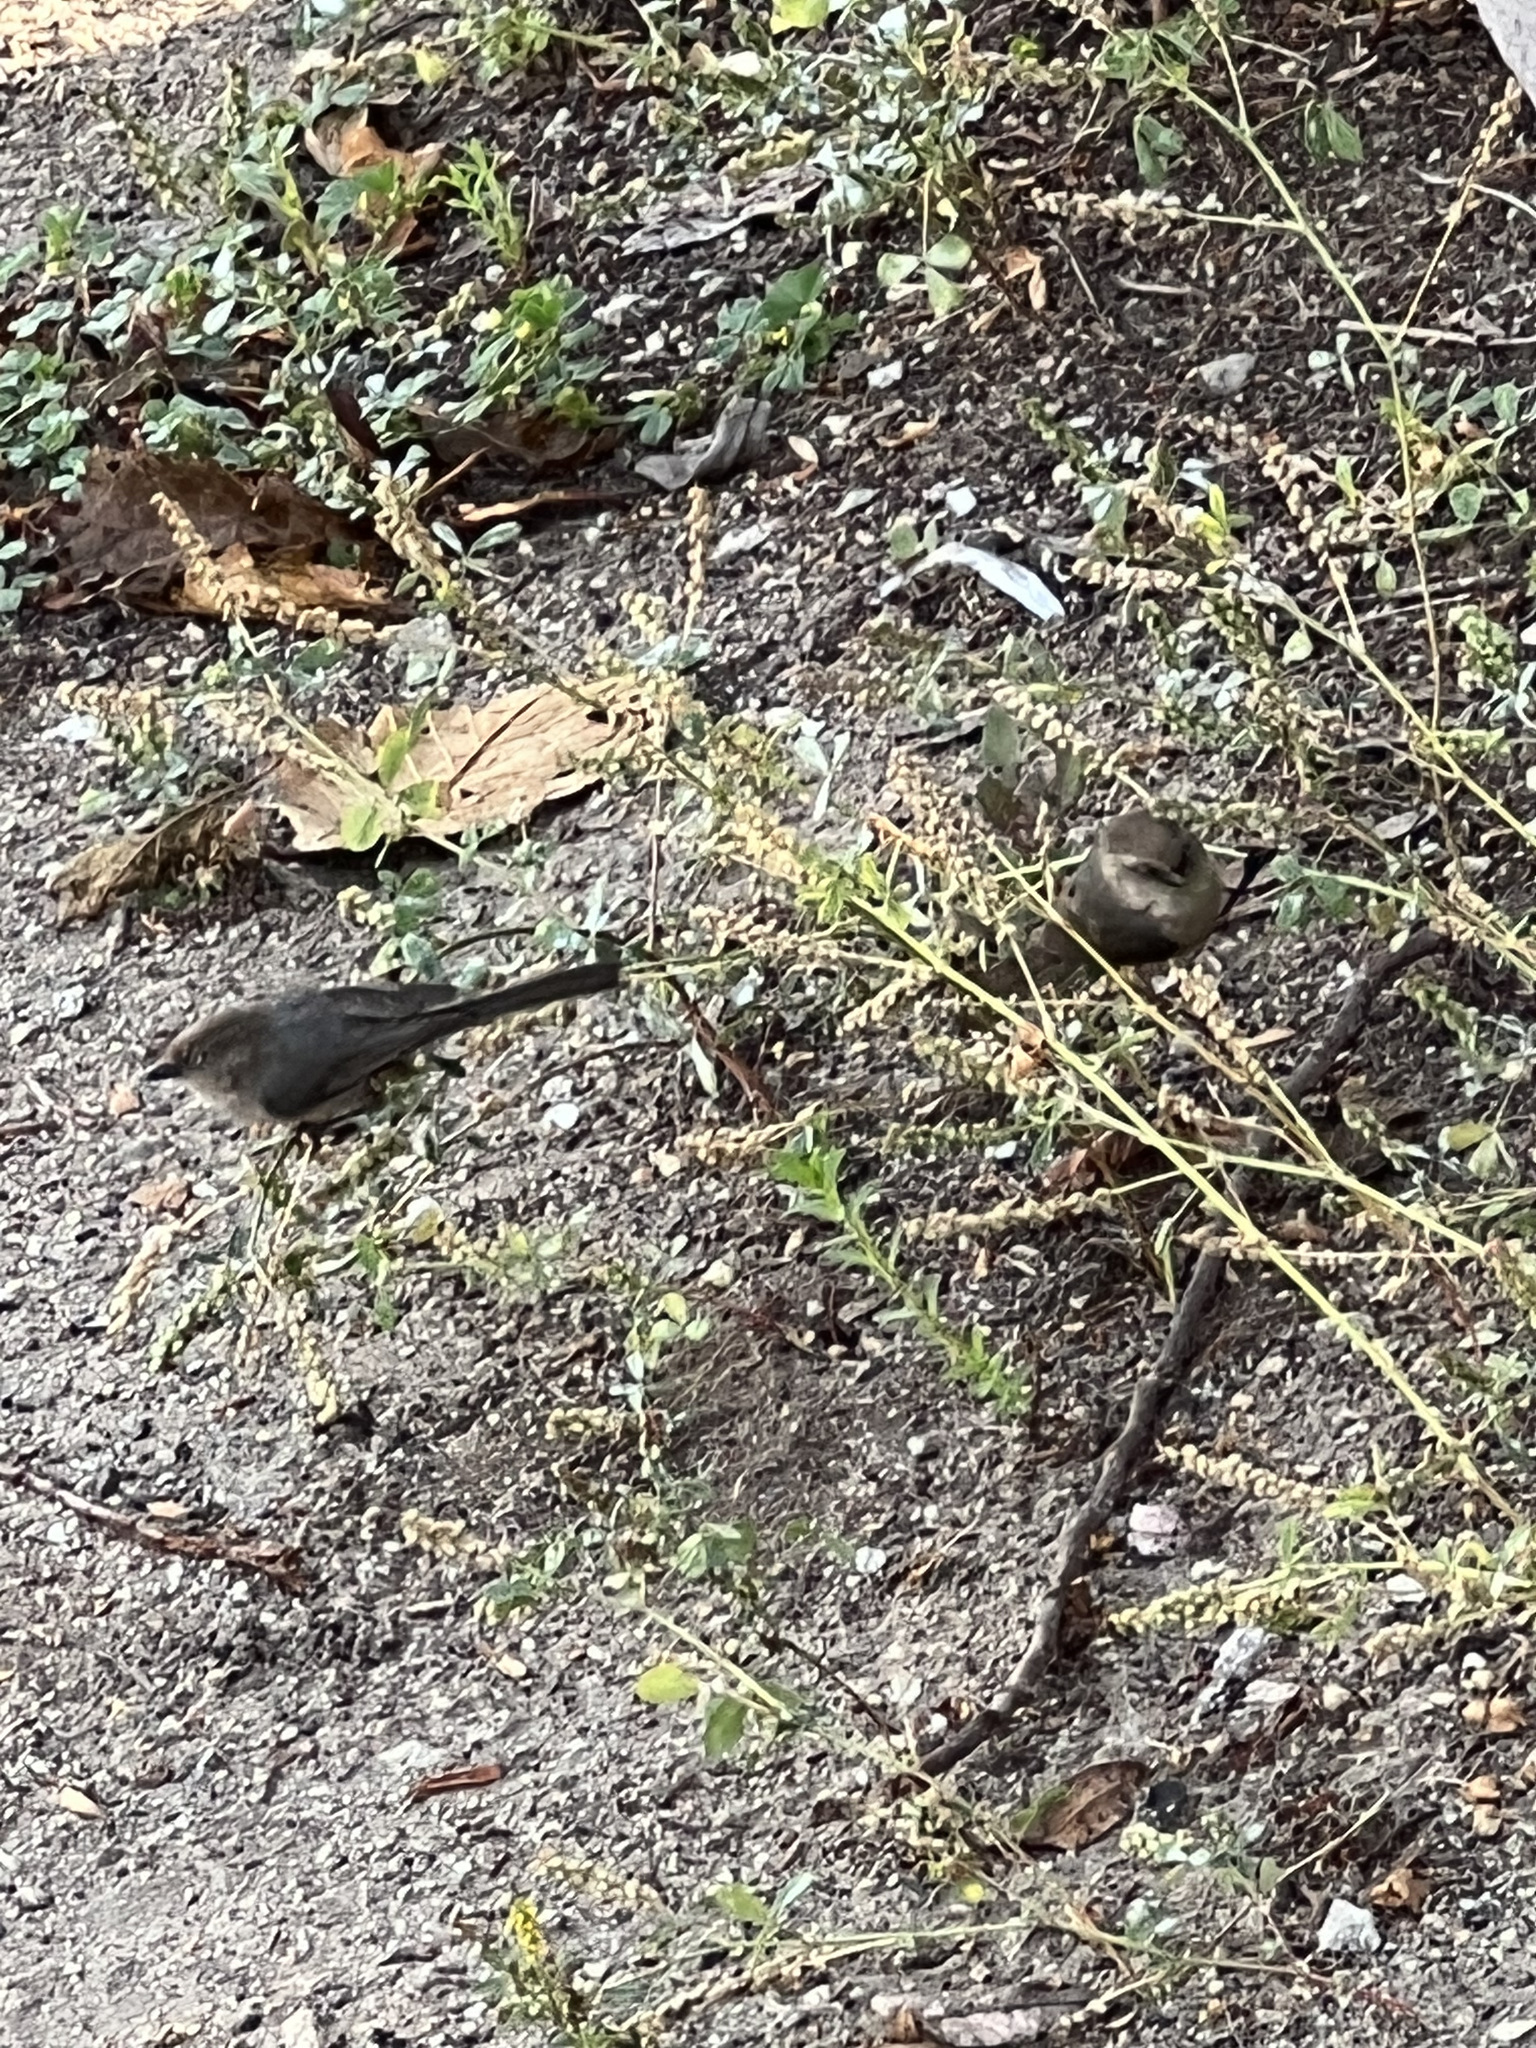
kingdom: Animalia
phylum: Chordata
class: Aves
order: Passeriformes
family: Aegithalidae
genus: Psaltriparus
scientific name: Psaltriparus minimus
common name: American bushtit
